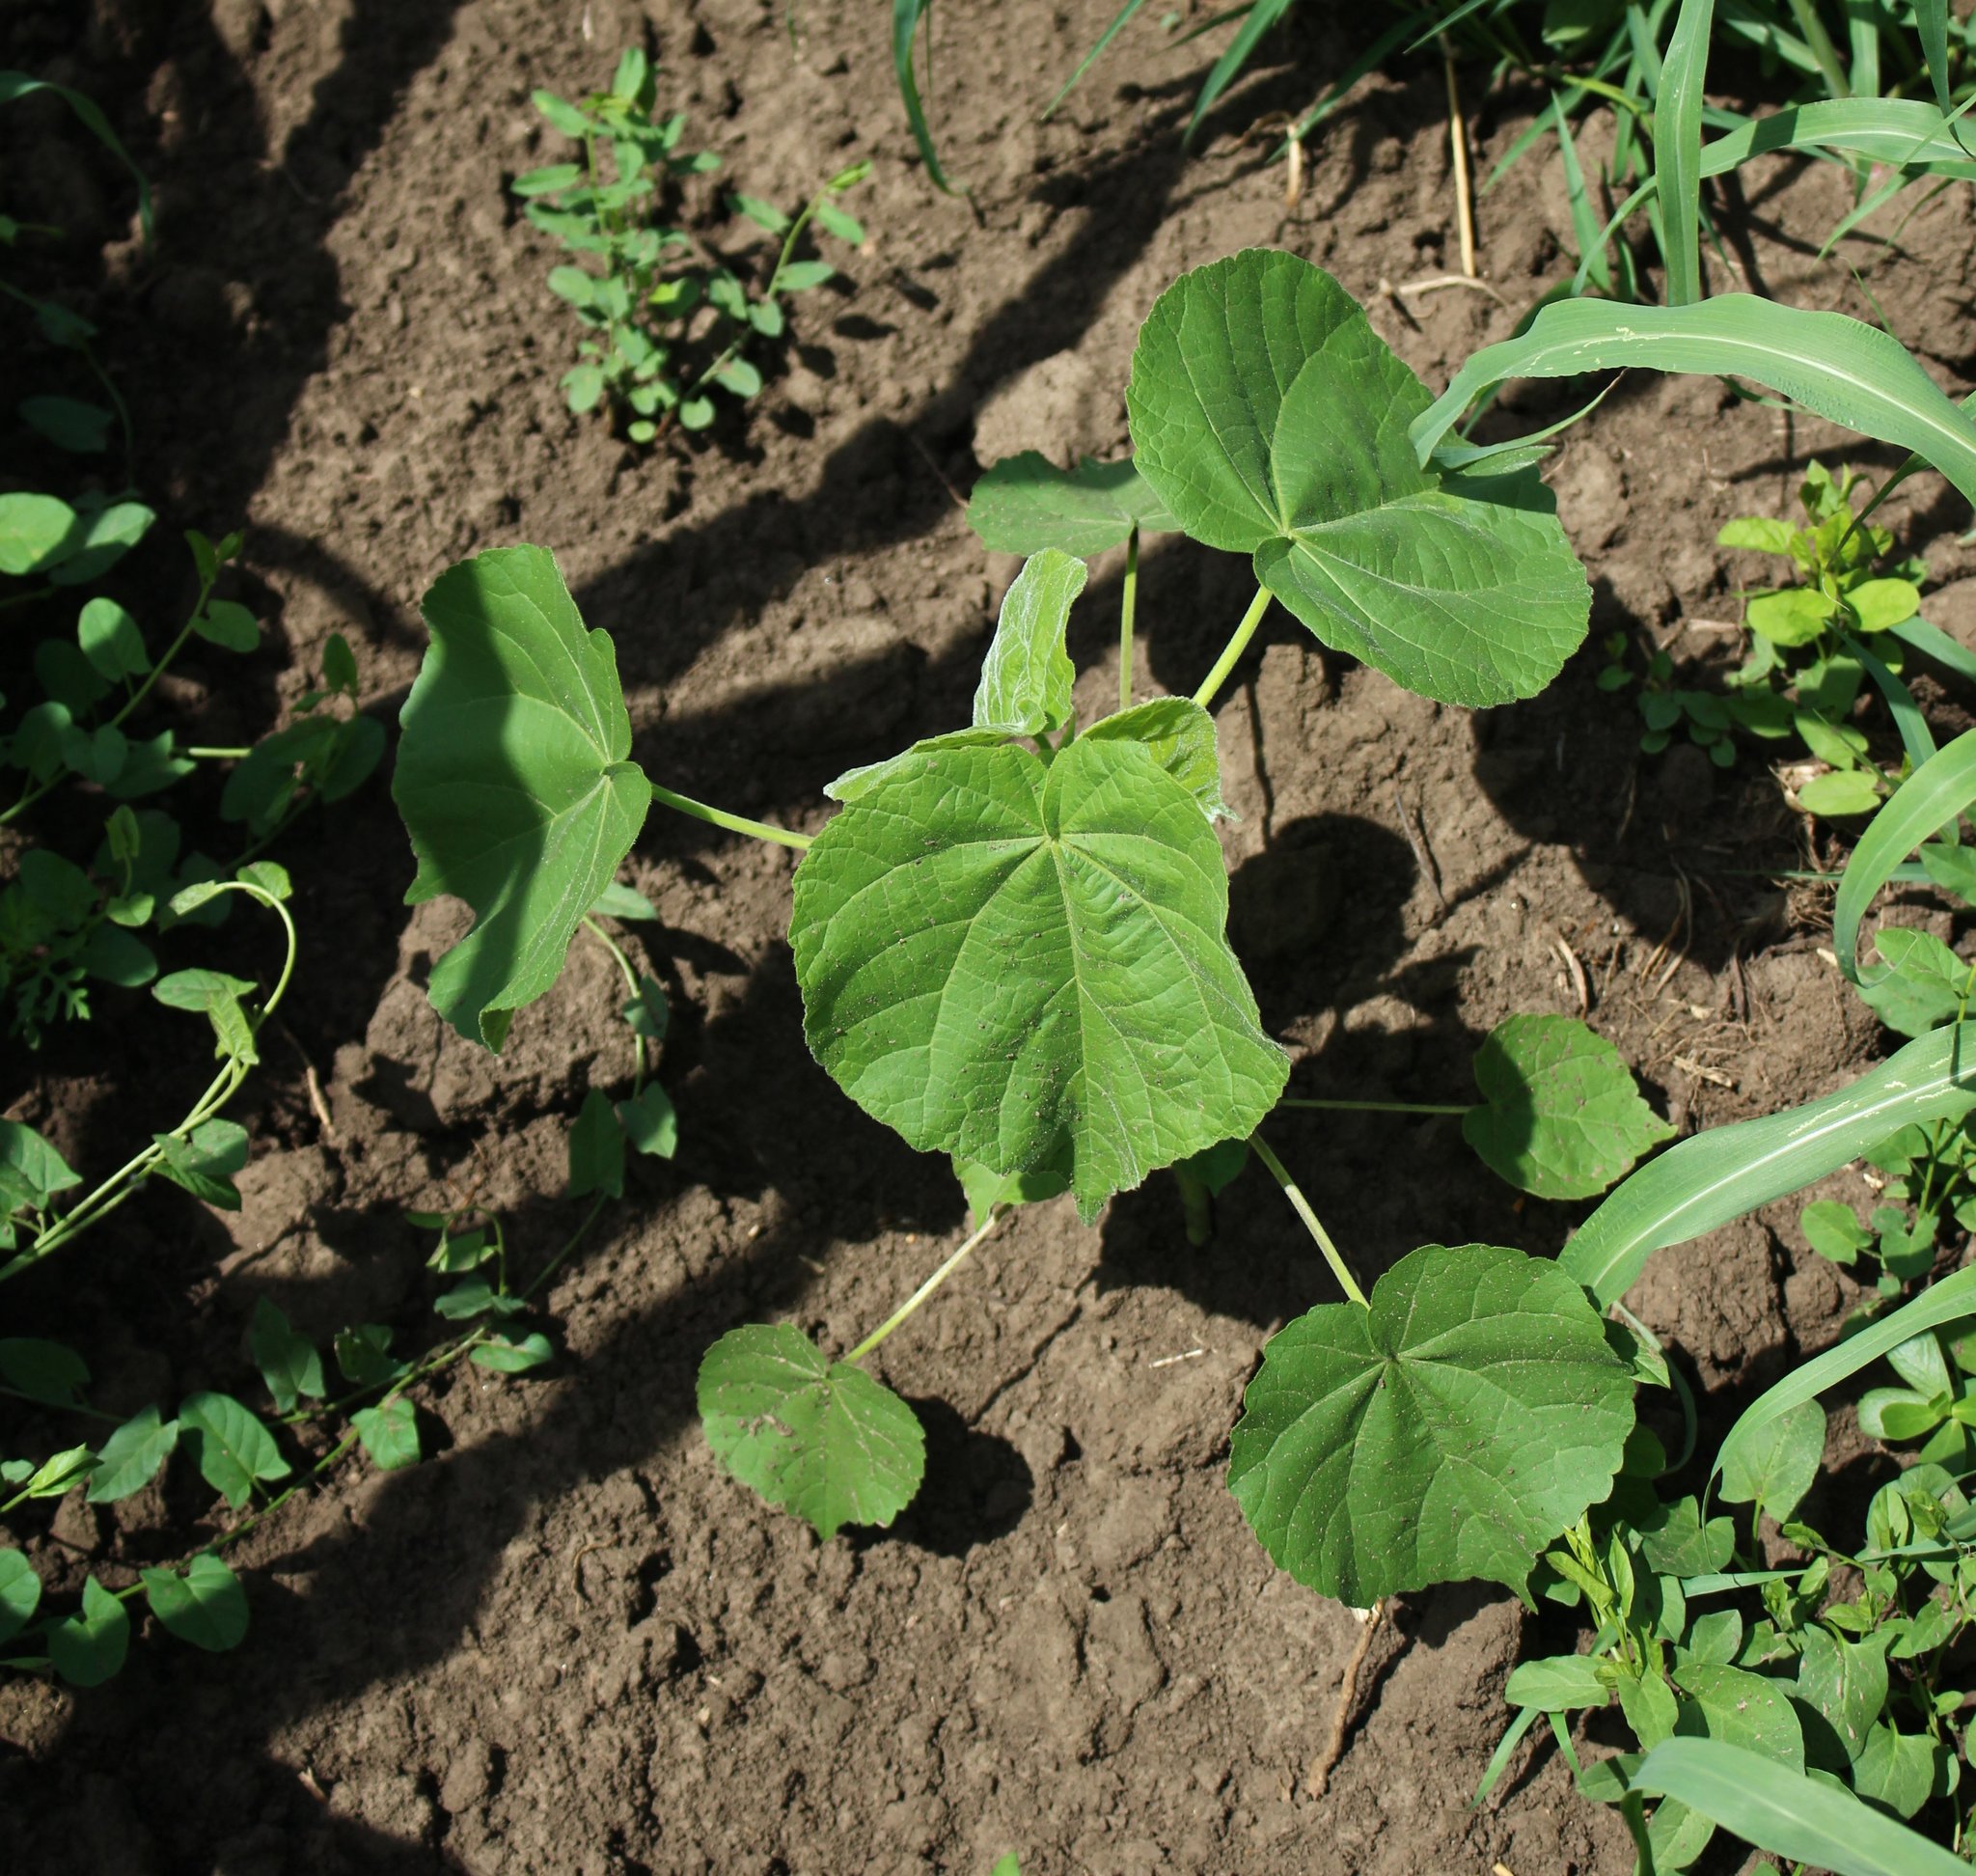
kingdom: Plantae
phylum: Tracheophyta
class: Magnoliopsida
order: Malvales
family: Malvaceae
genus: Abutilon
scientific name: Abutilon theophrasti
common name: Velvetleaf
